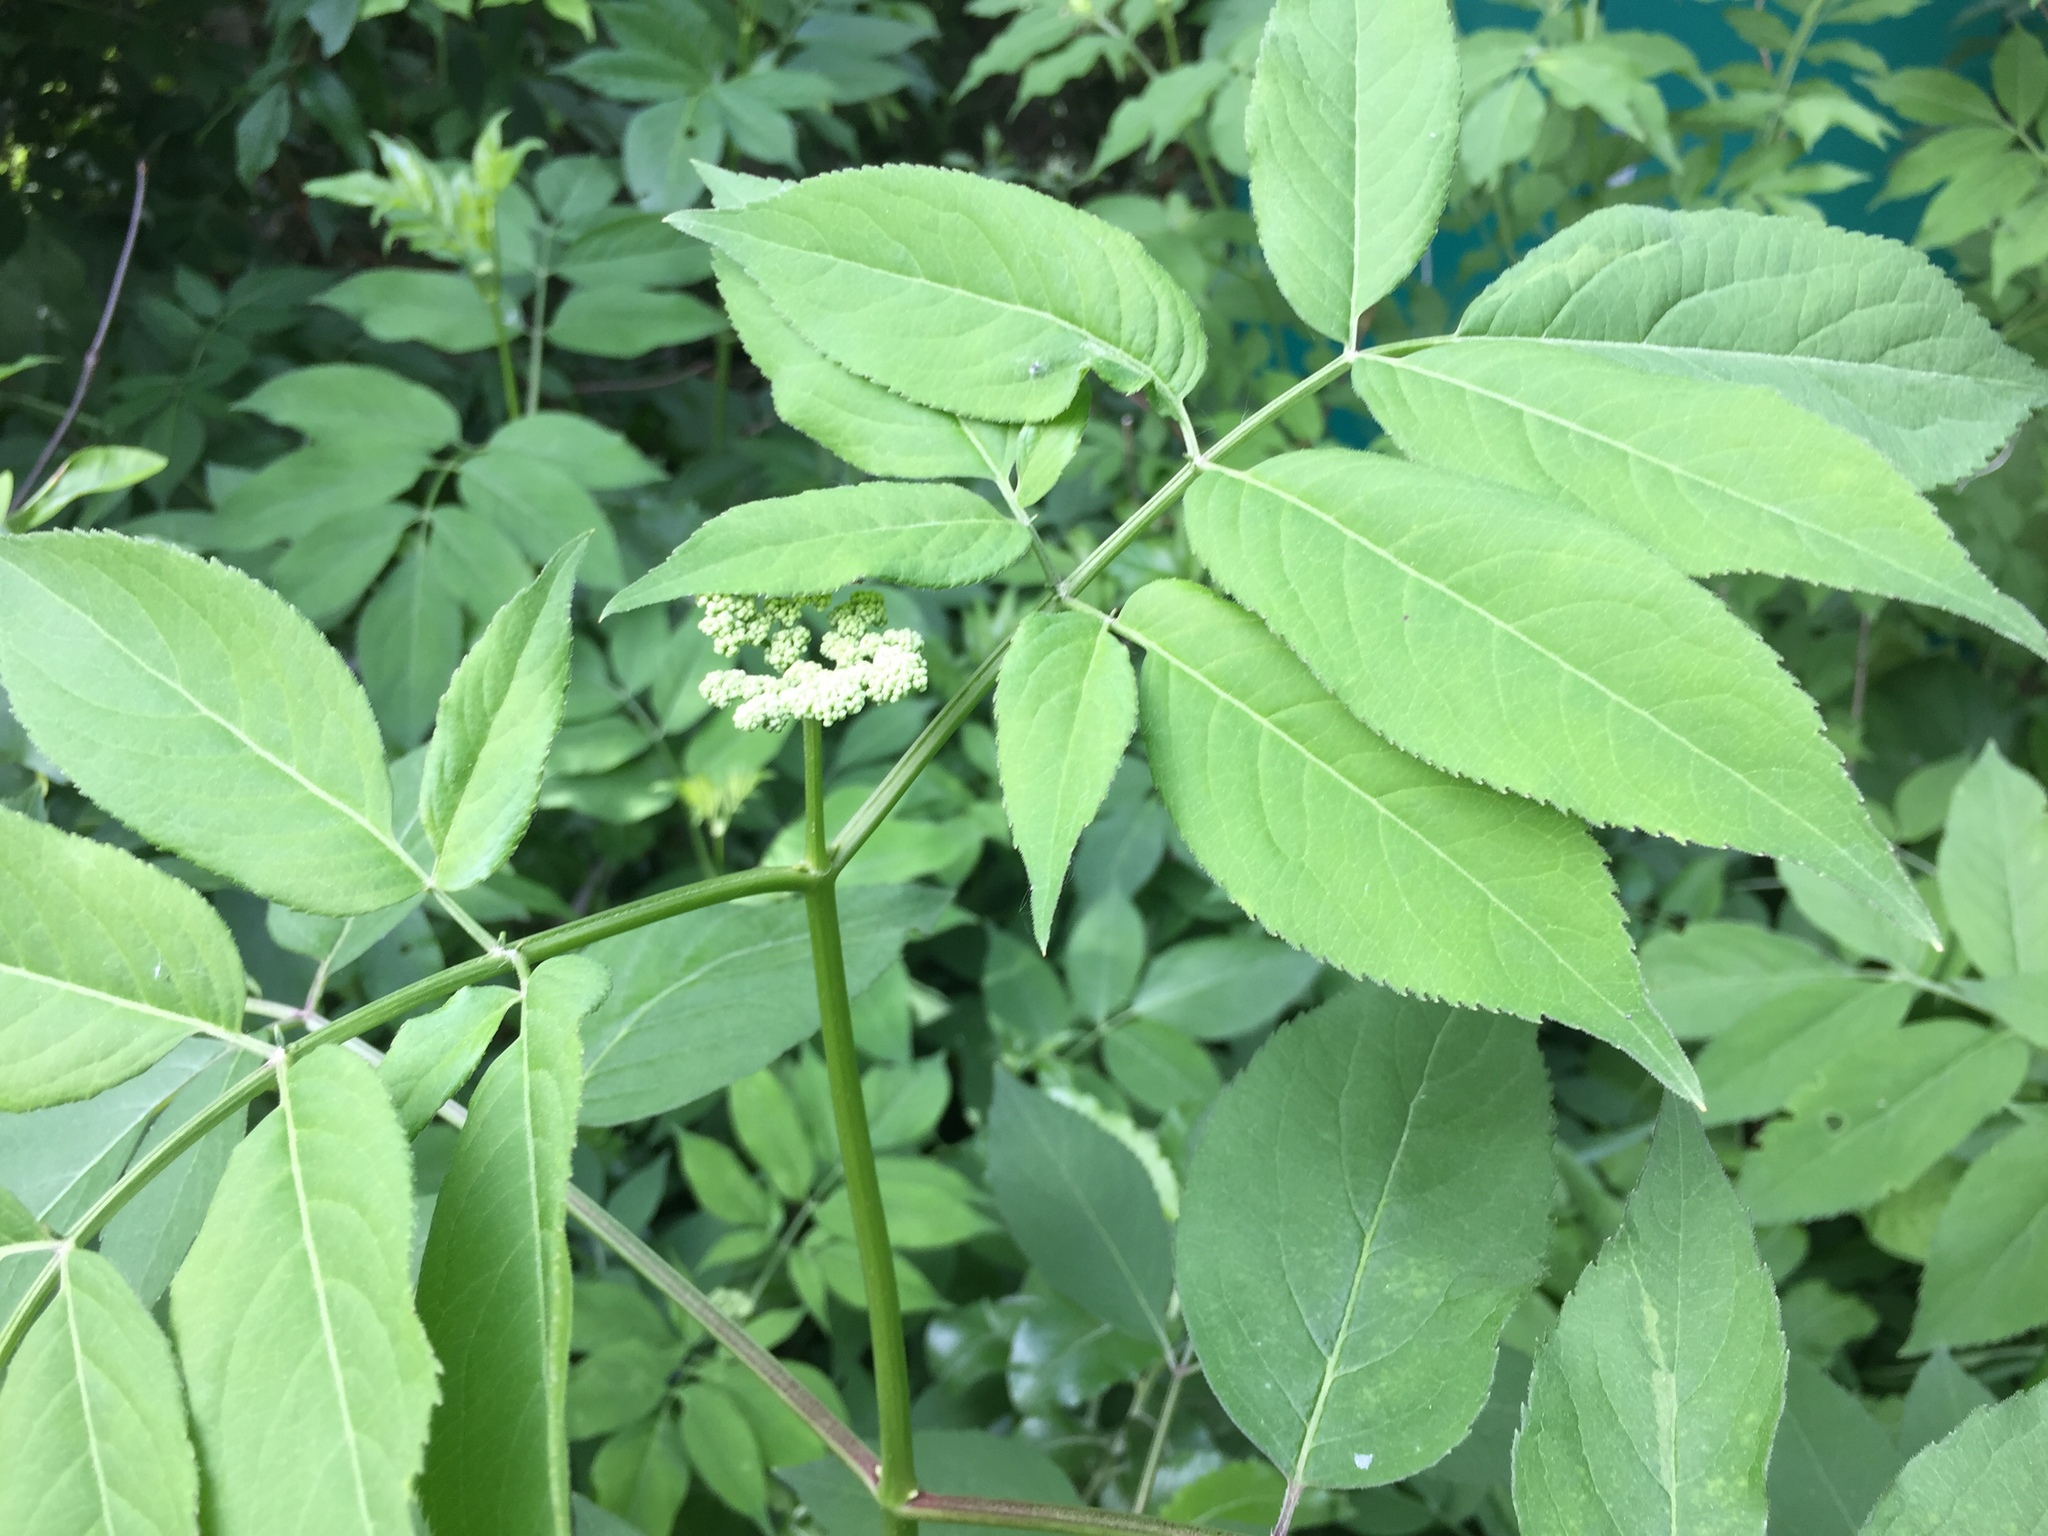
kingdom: Plantae
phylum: Tracheophyta
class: Magnoliopsida
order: Dipsacales
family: Viburnaceae
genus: Sambucus
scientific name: Sambucus canadensis
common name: American elder
